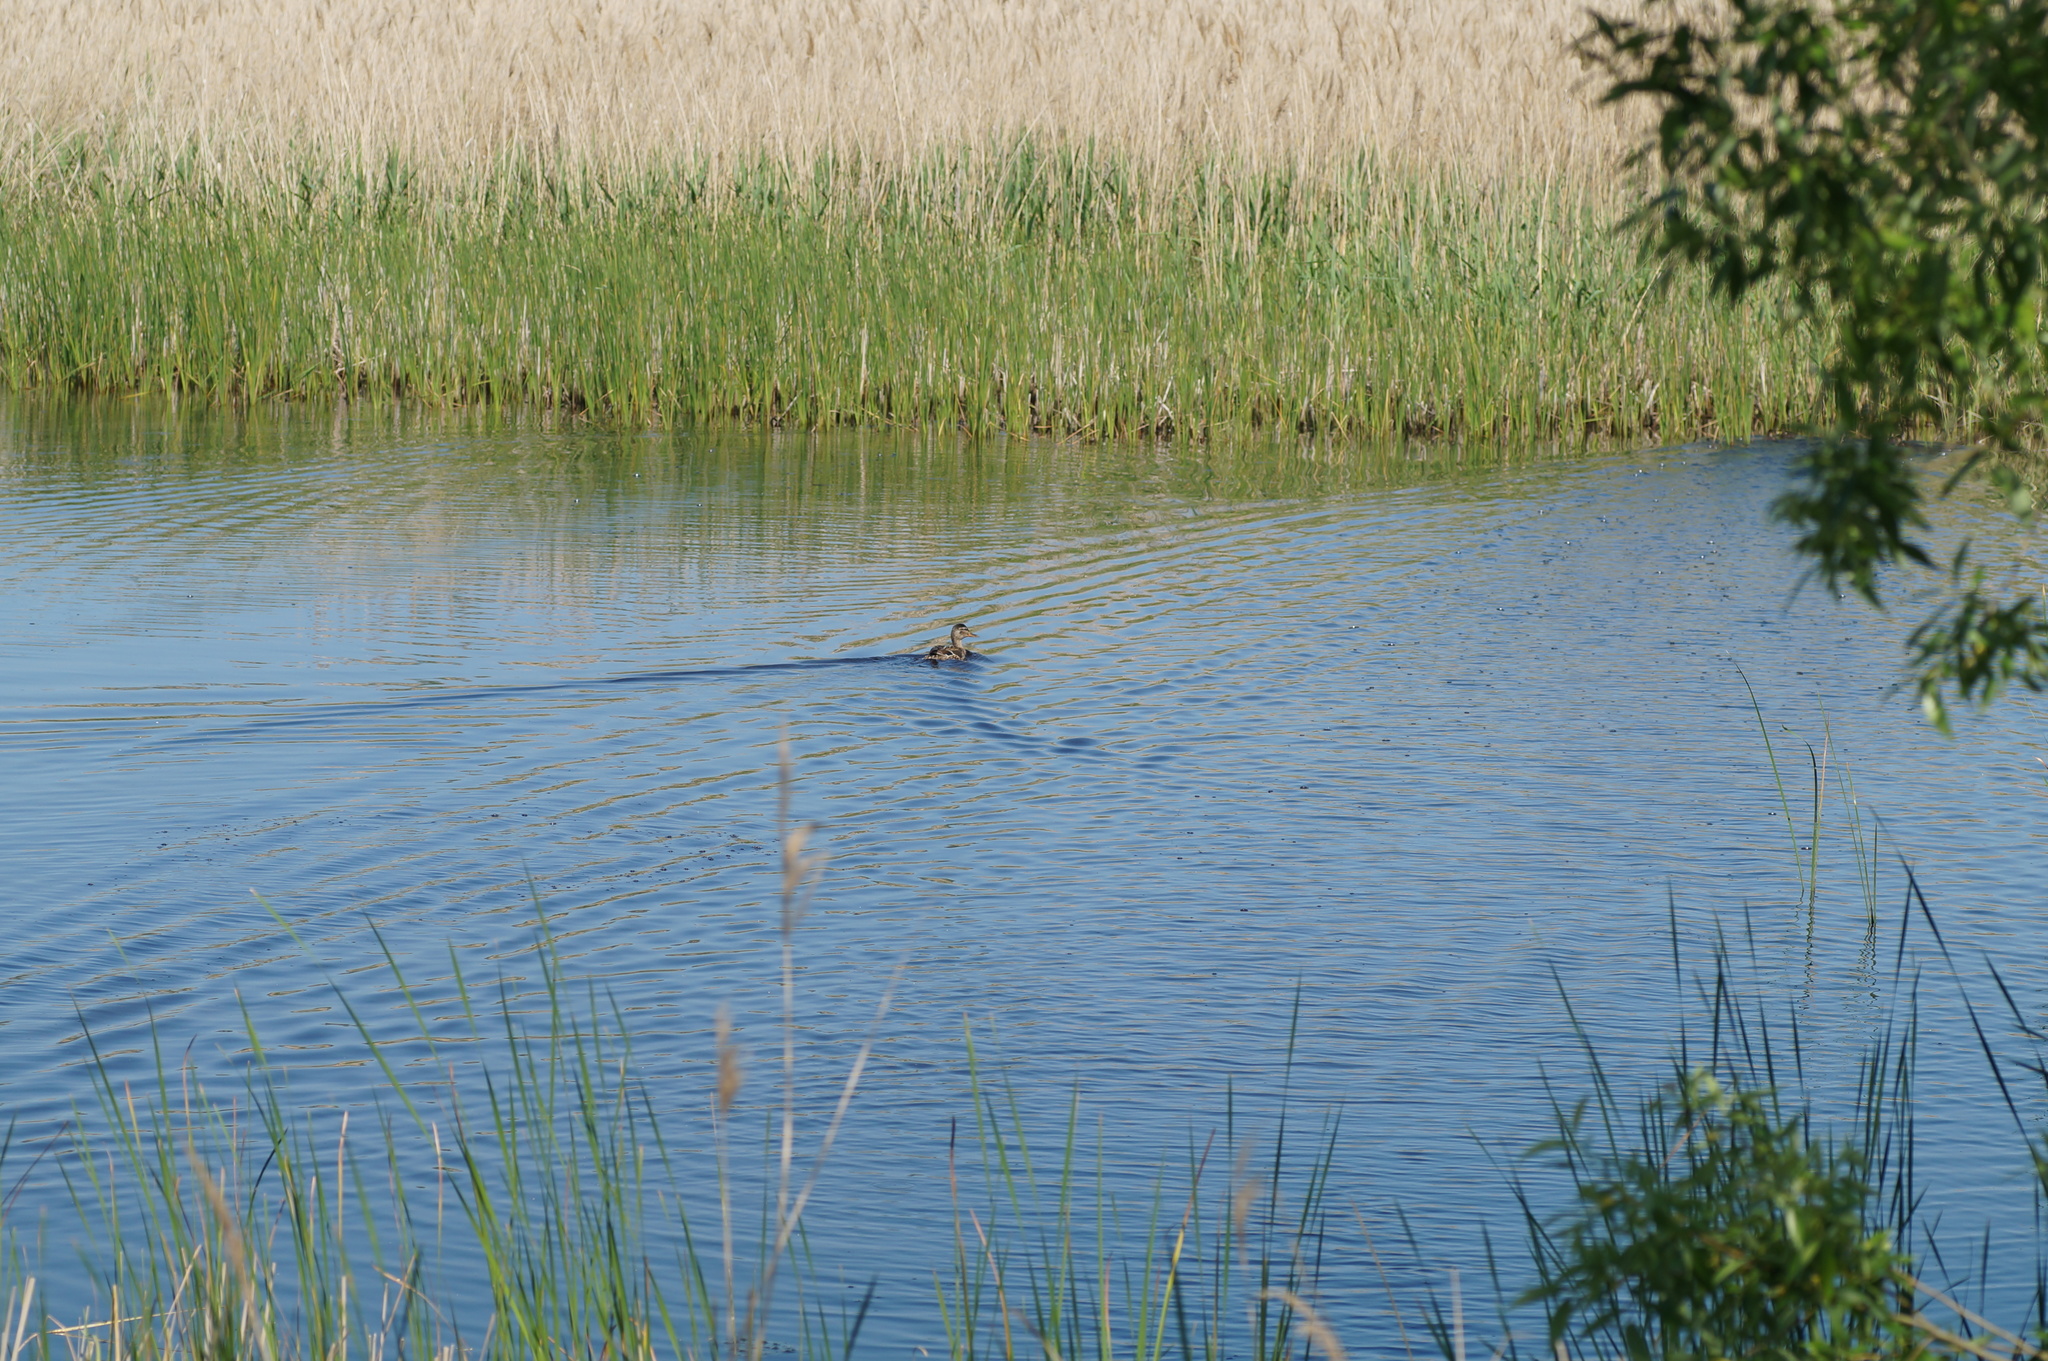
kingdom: Animalia
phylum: Chordata
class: Aves
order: Anseriformes
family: Anatidae
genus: Anas
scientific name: Anas platyrhynchos
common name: Mallard
